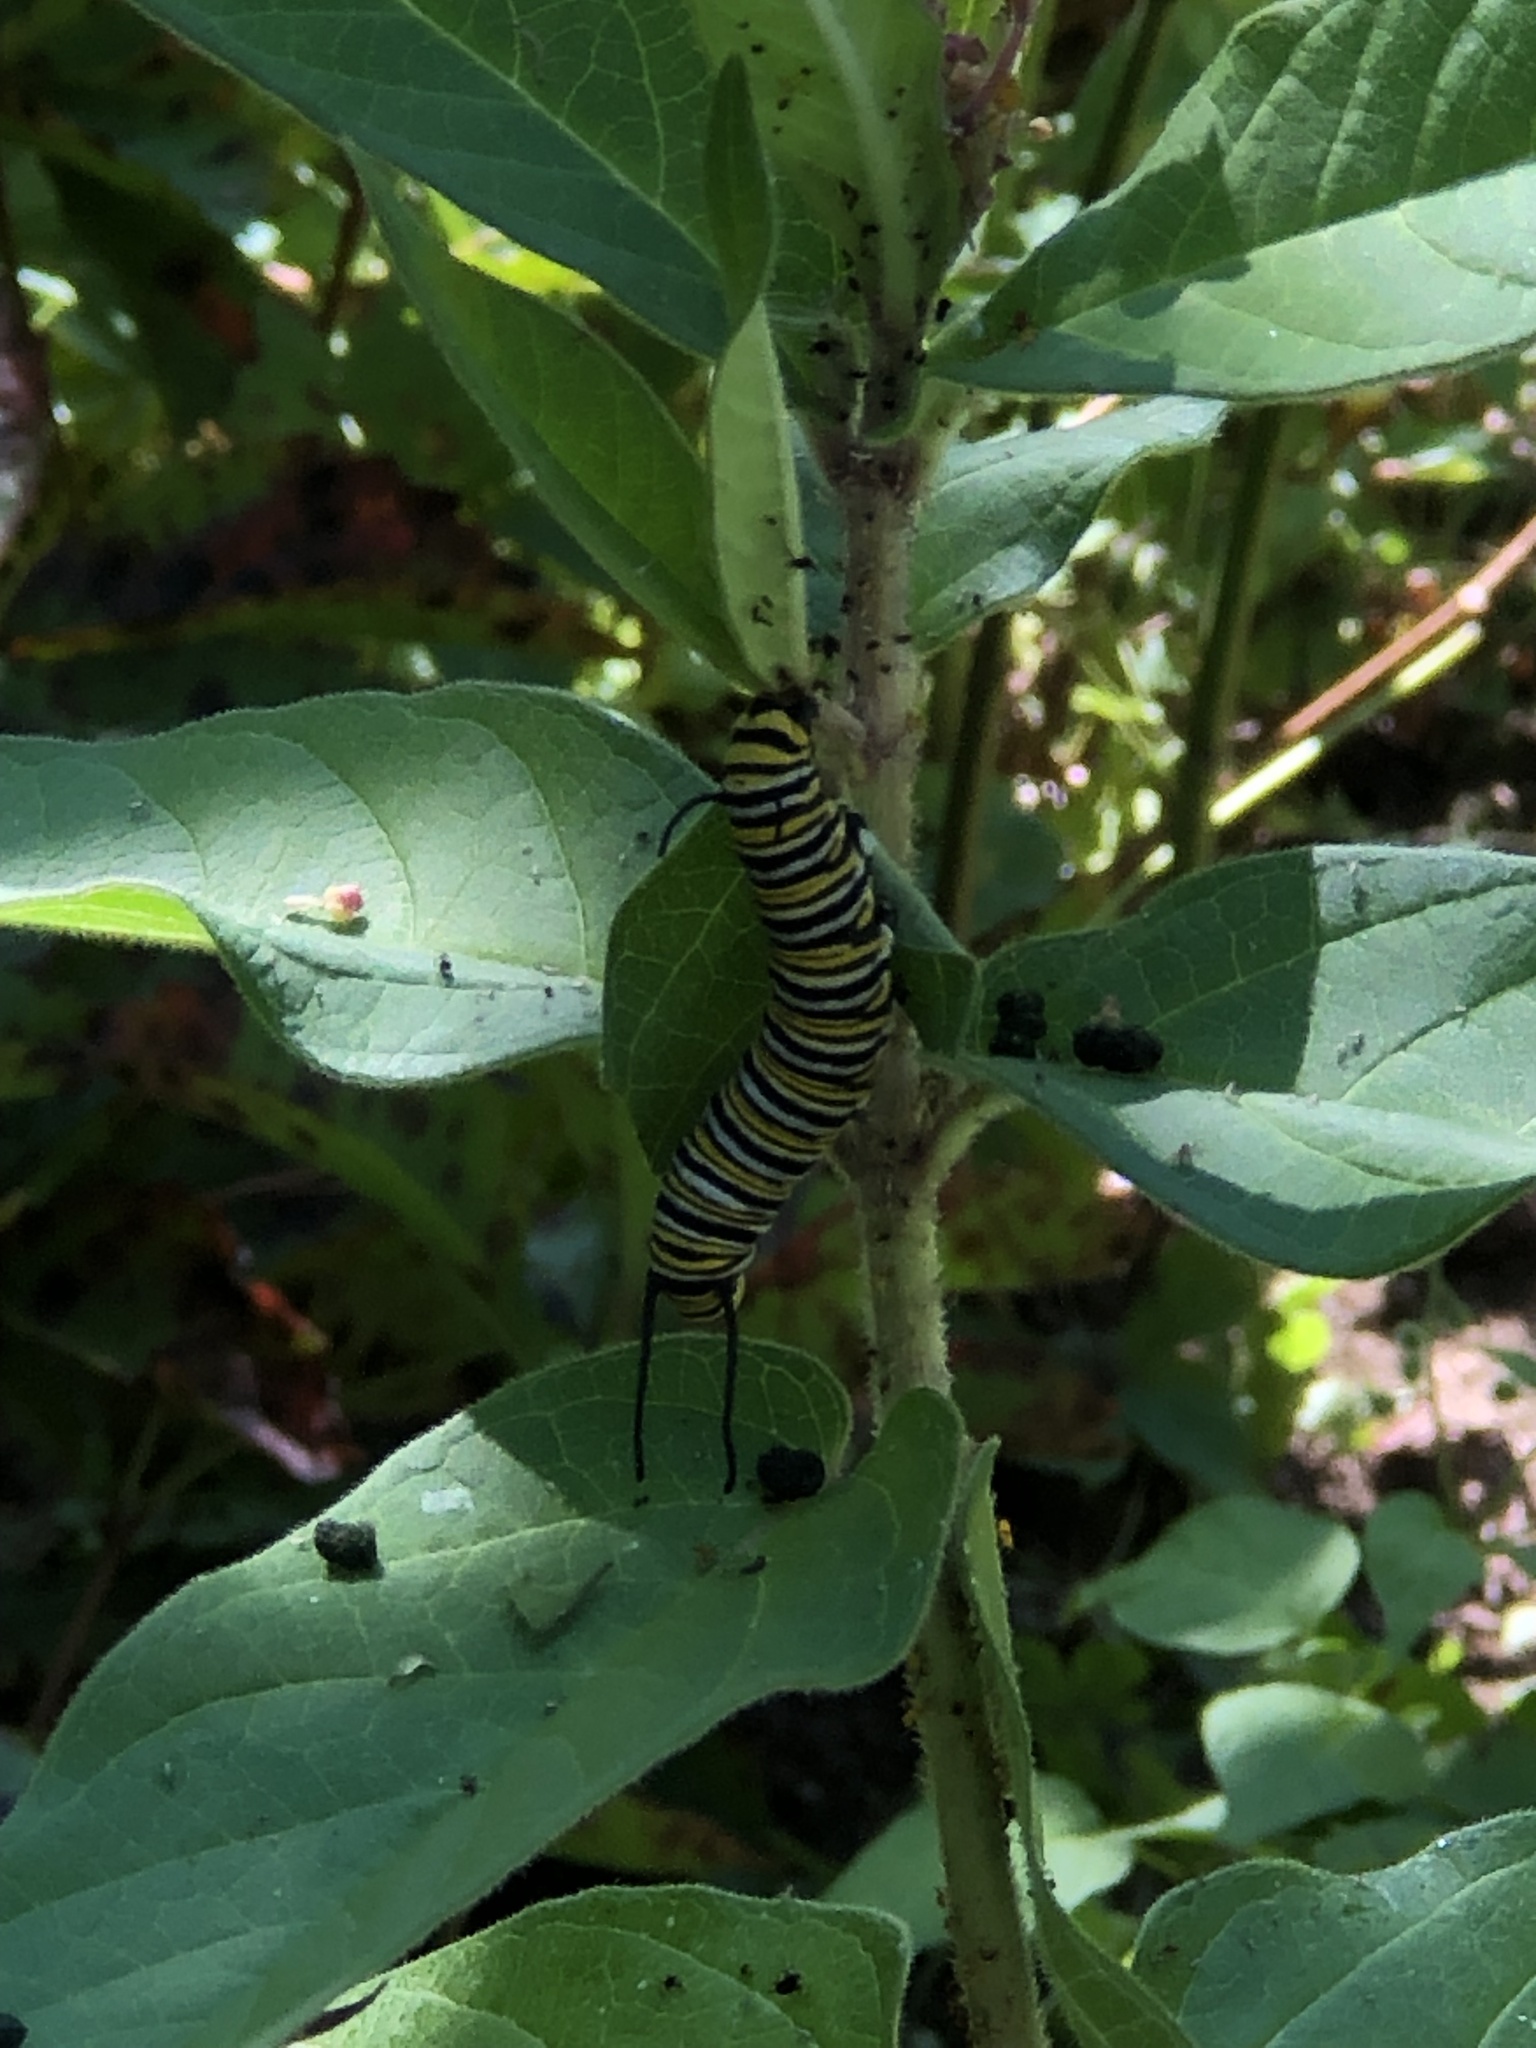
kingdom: Animalia
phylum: Arthropoda
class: Insecta
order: Lepidoptera
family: Nymphalidae
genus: Danaus
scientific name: Danaus plexippus
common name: Monarch
